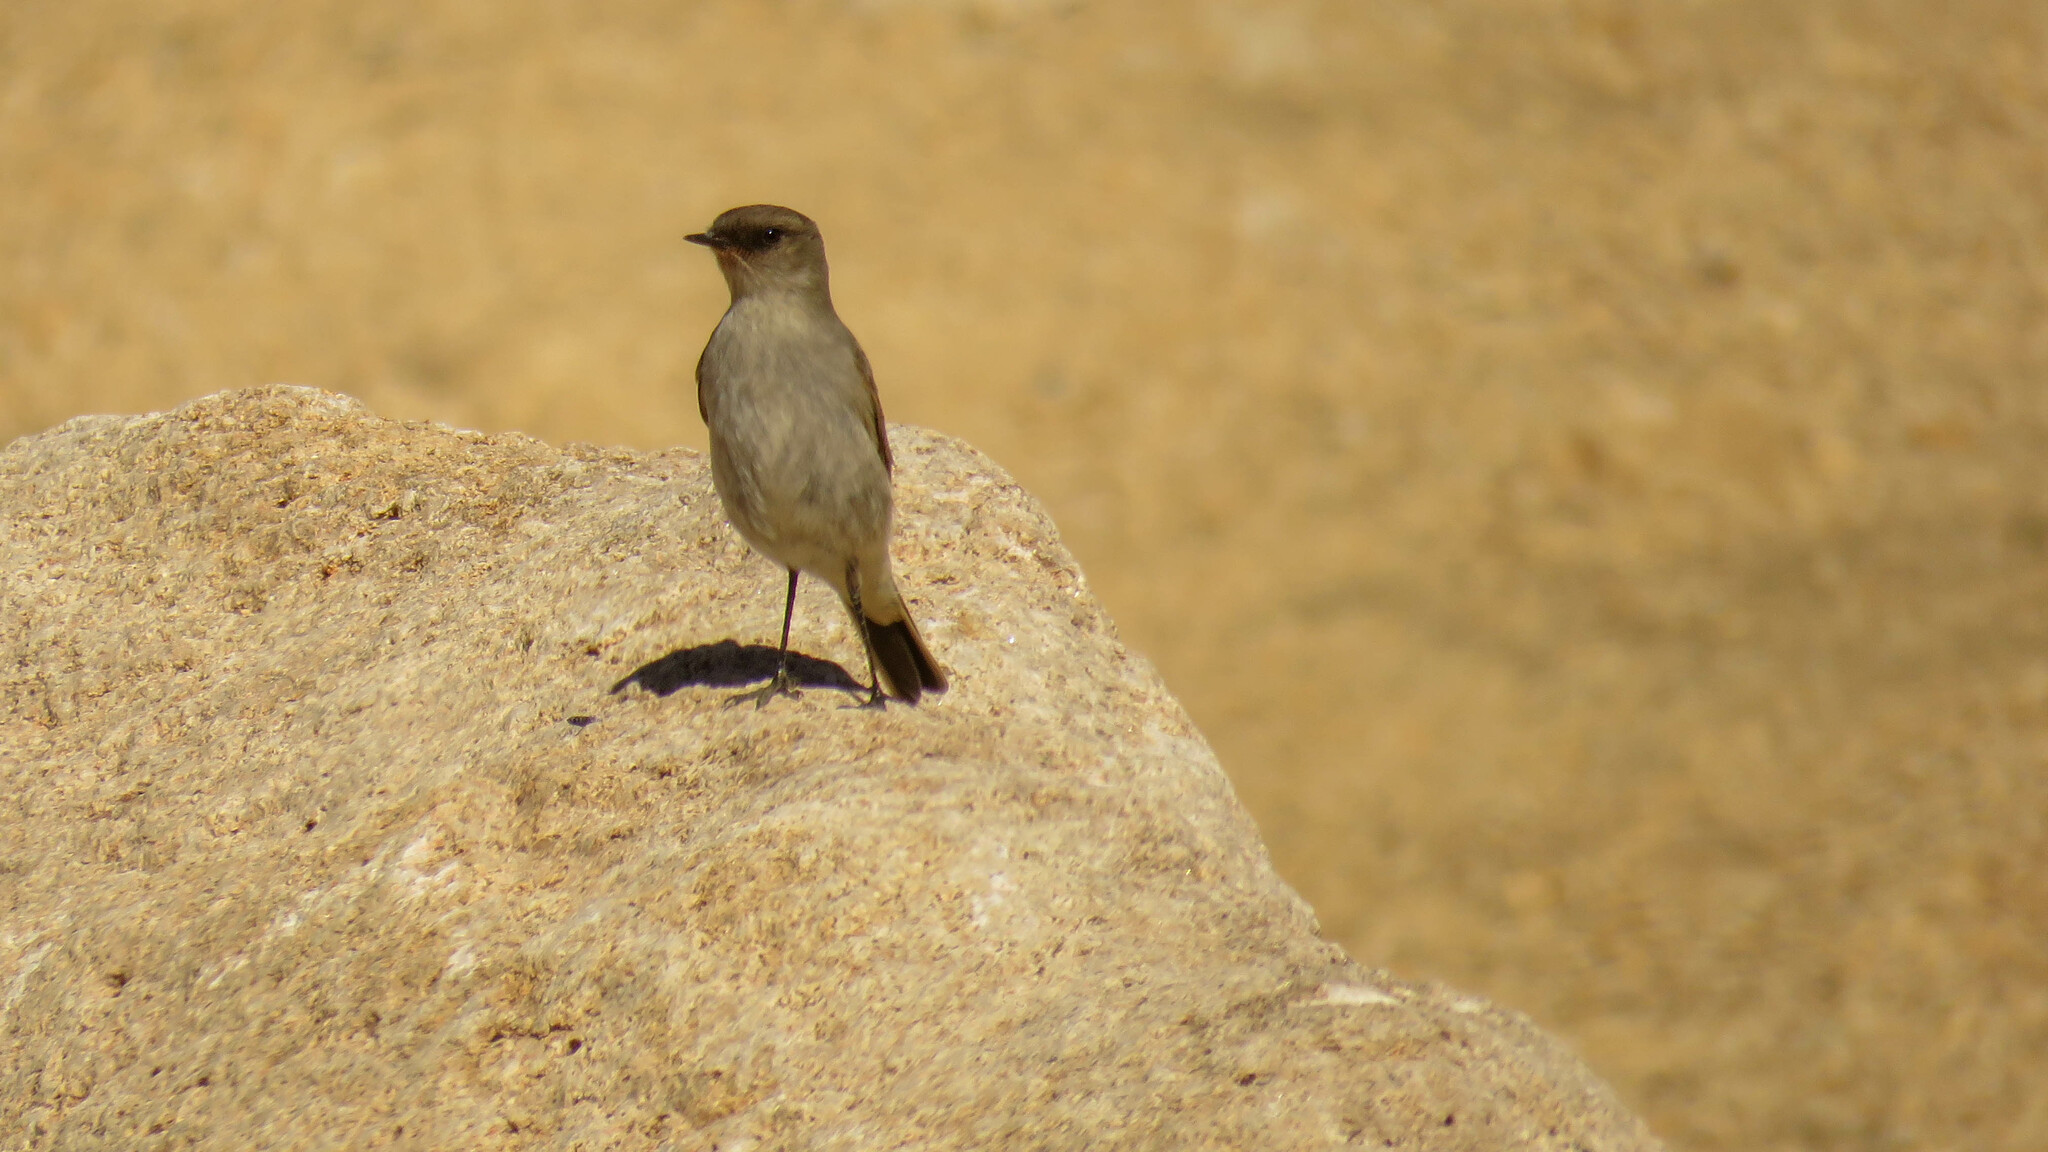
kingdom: Animalia
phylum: Chordata
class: Aves
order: Passeriformes
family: Tyrannidae
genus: Muscisaxicola
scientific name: Muscisaxicola maclovianus
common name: Dark-faced ground tyrant
